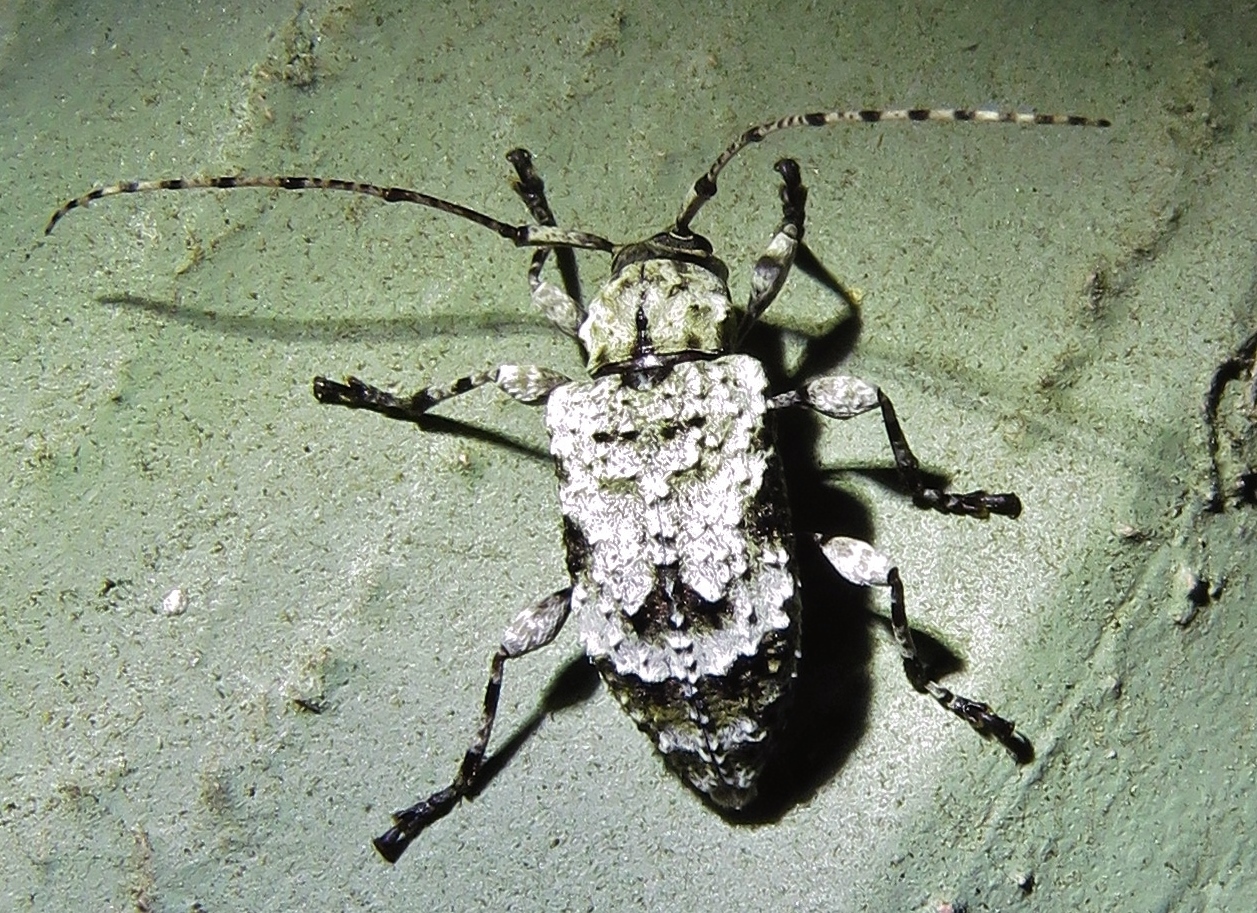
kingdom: Animalia
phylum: Arthropoda
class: Insecta
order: Coleoptera
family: Cerambycidae
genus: Leptostylus
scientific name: Leptostylus asperatus
